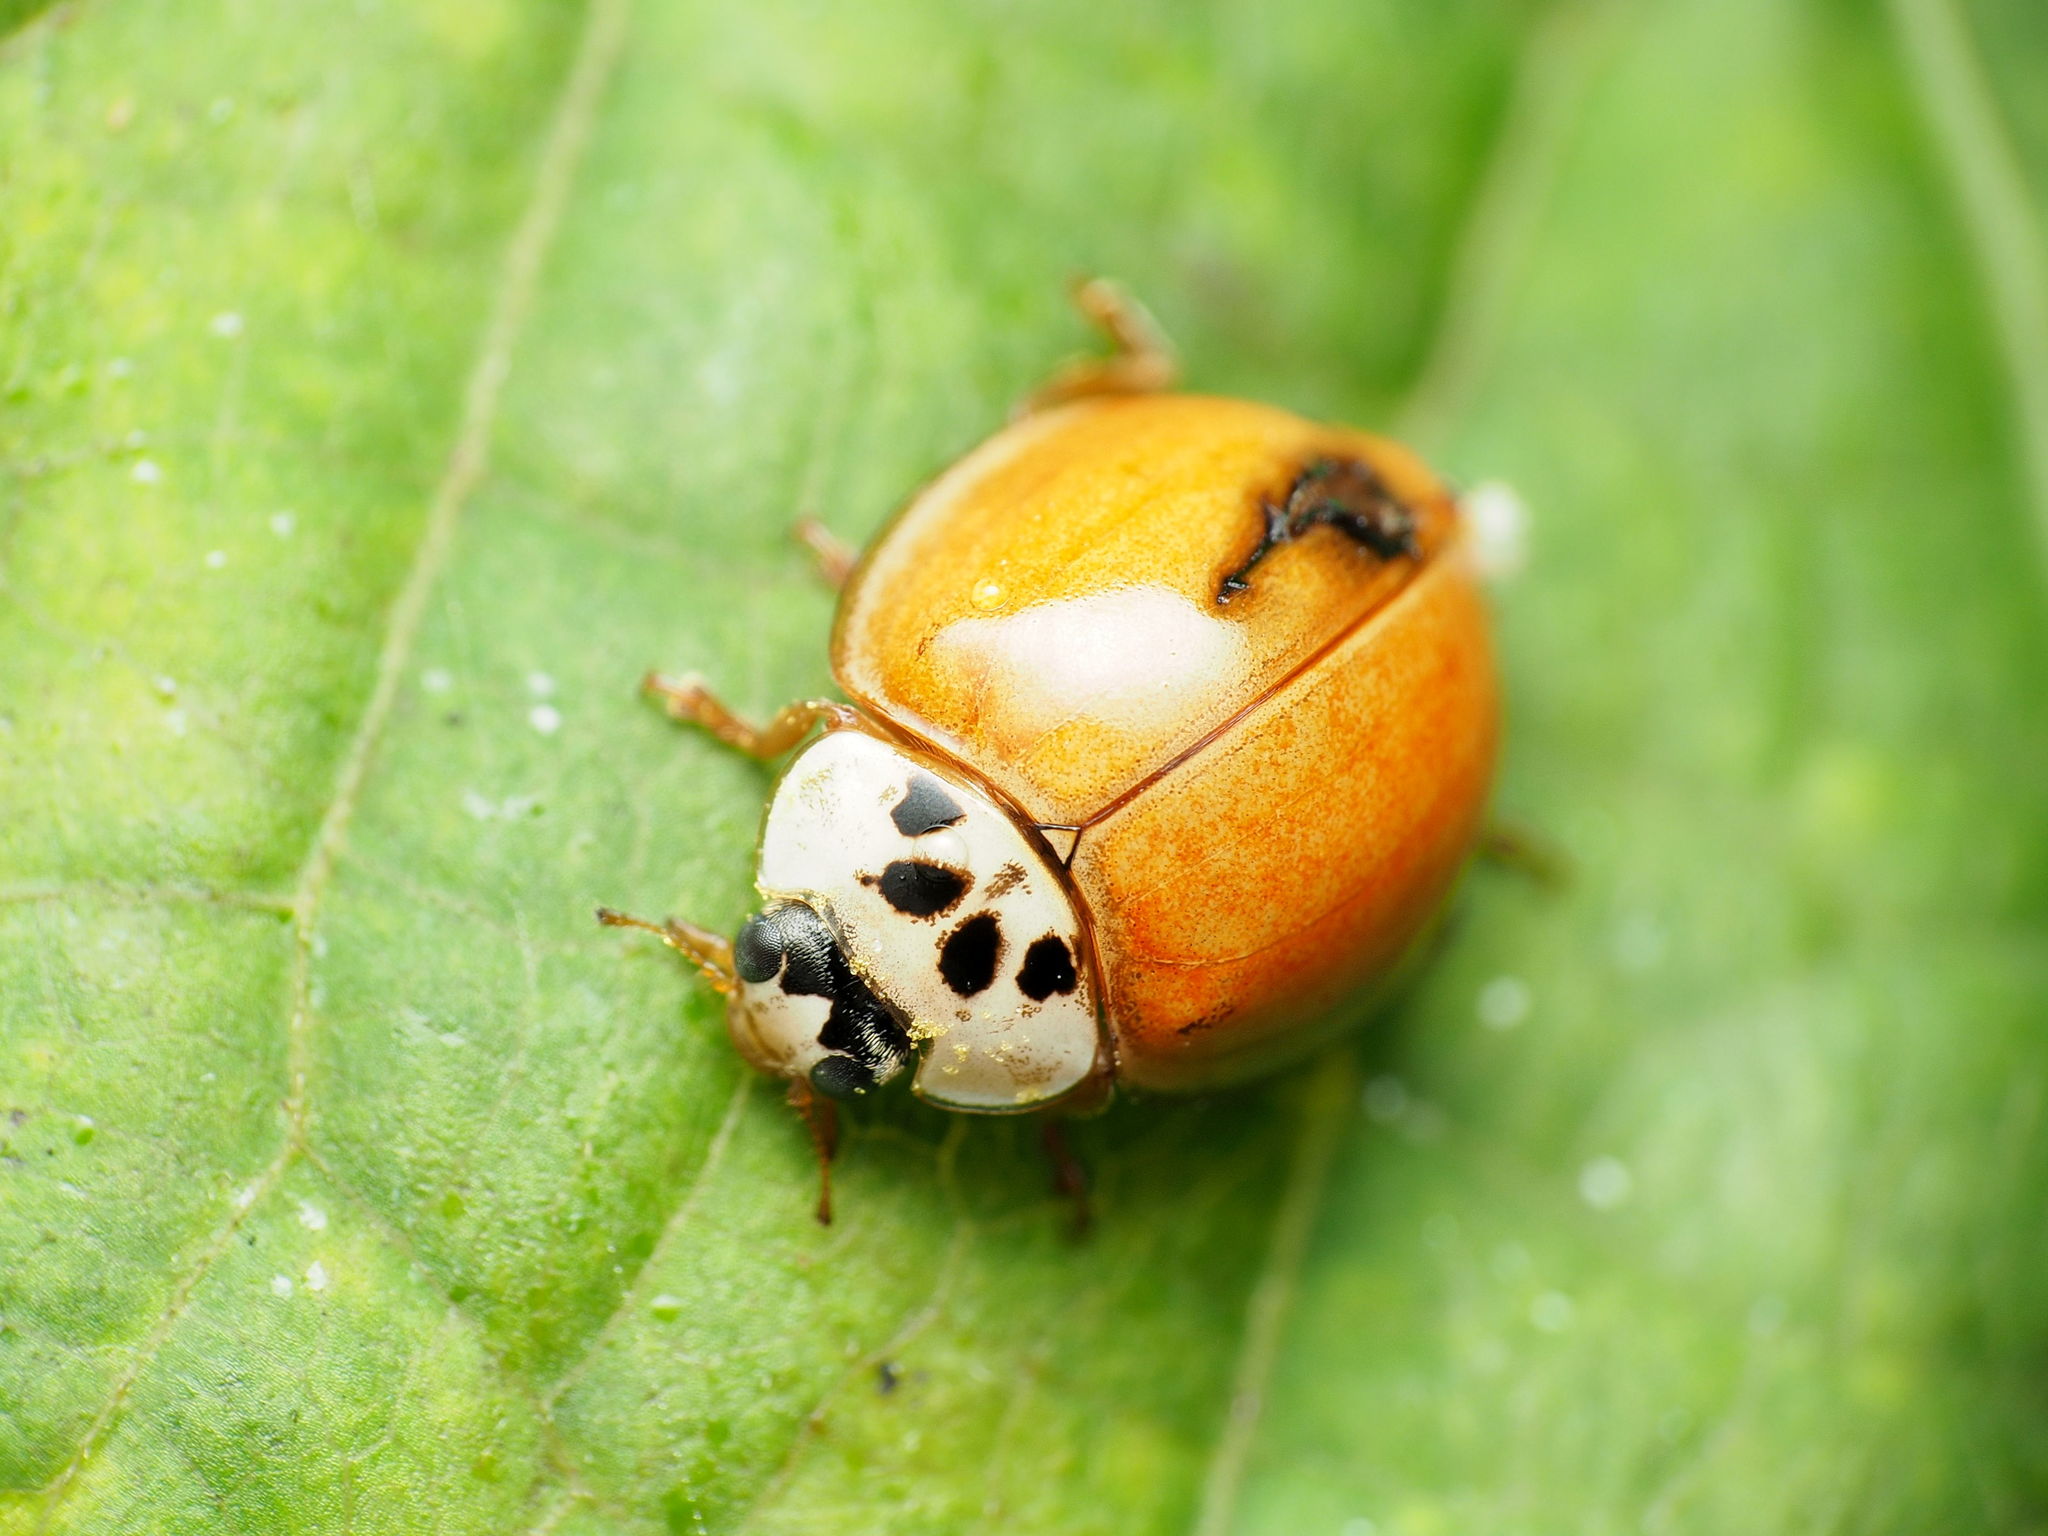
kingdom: Animalia
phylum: Arthropoda
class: Insecta
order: Coleoptera
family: Coccinellidae
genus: Harmonia
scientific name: Harmonia axyridis
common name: Harlequin ladybird
